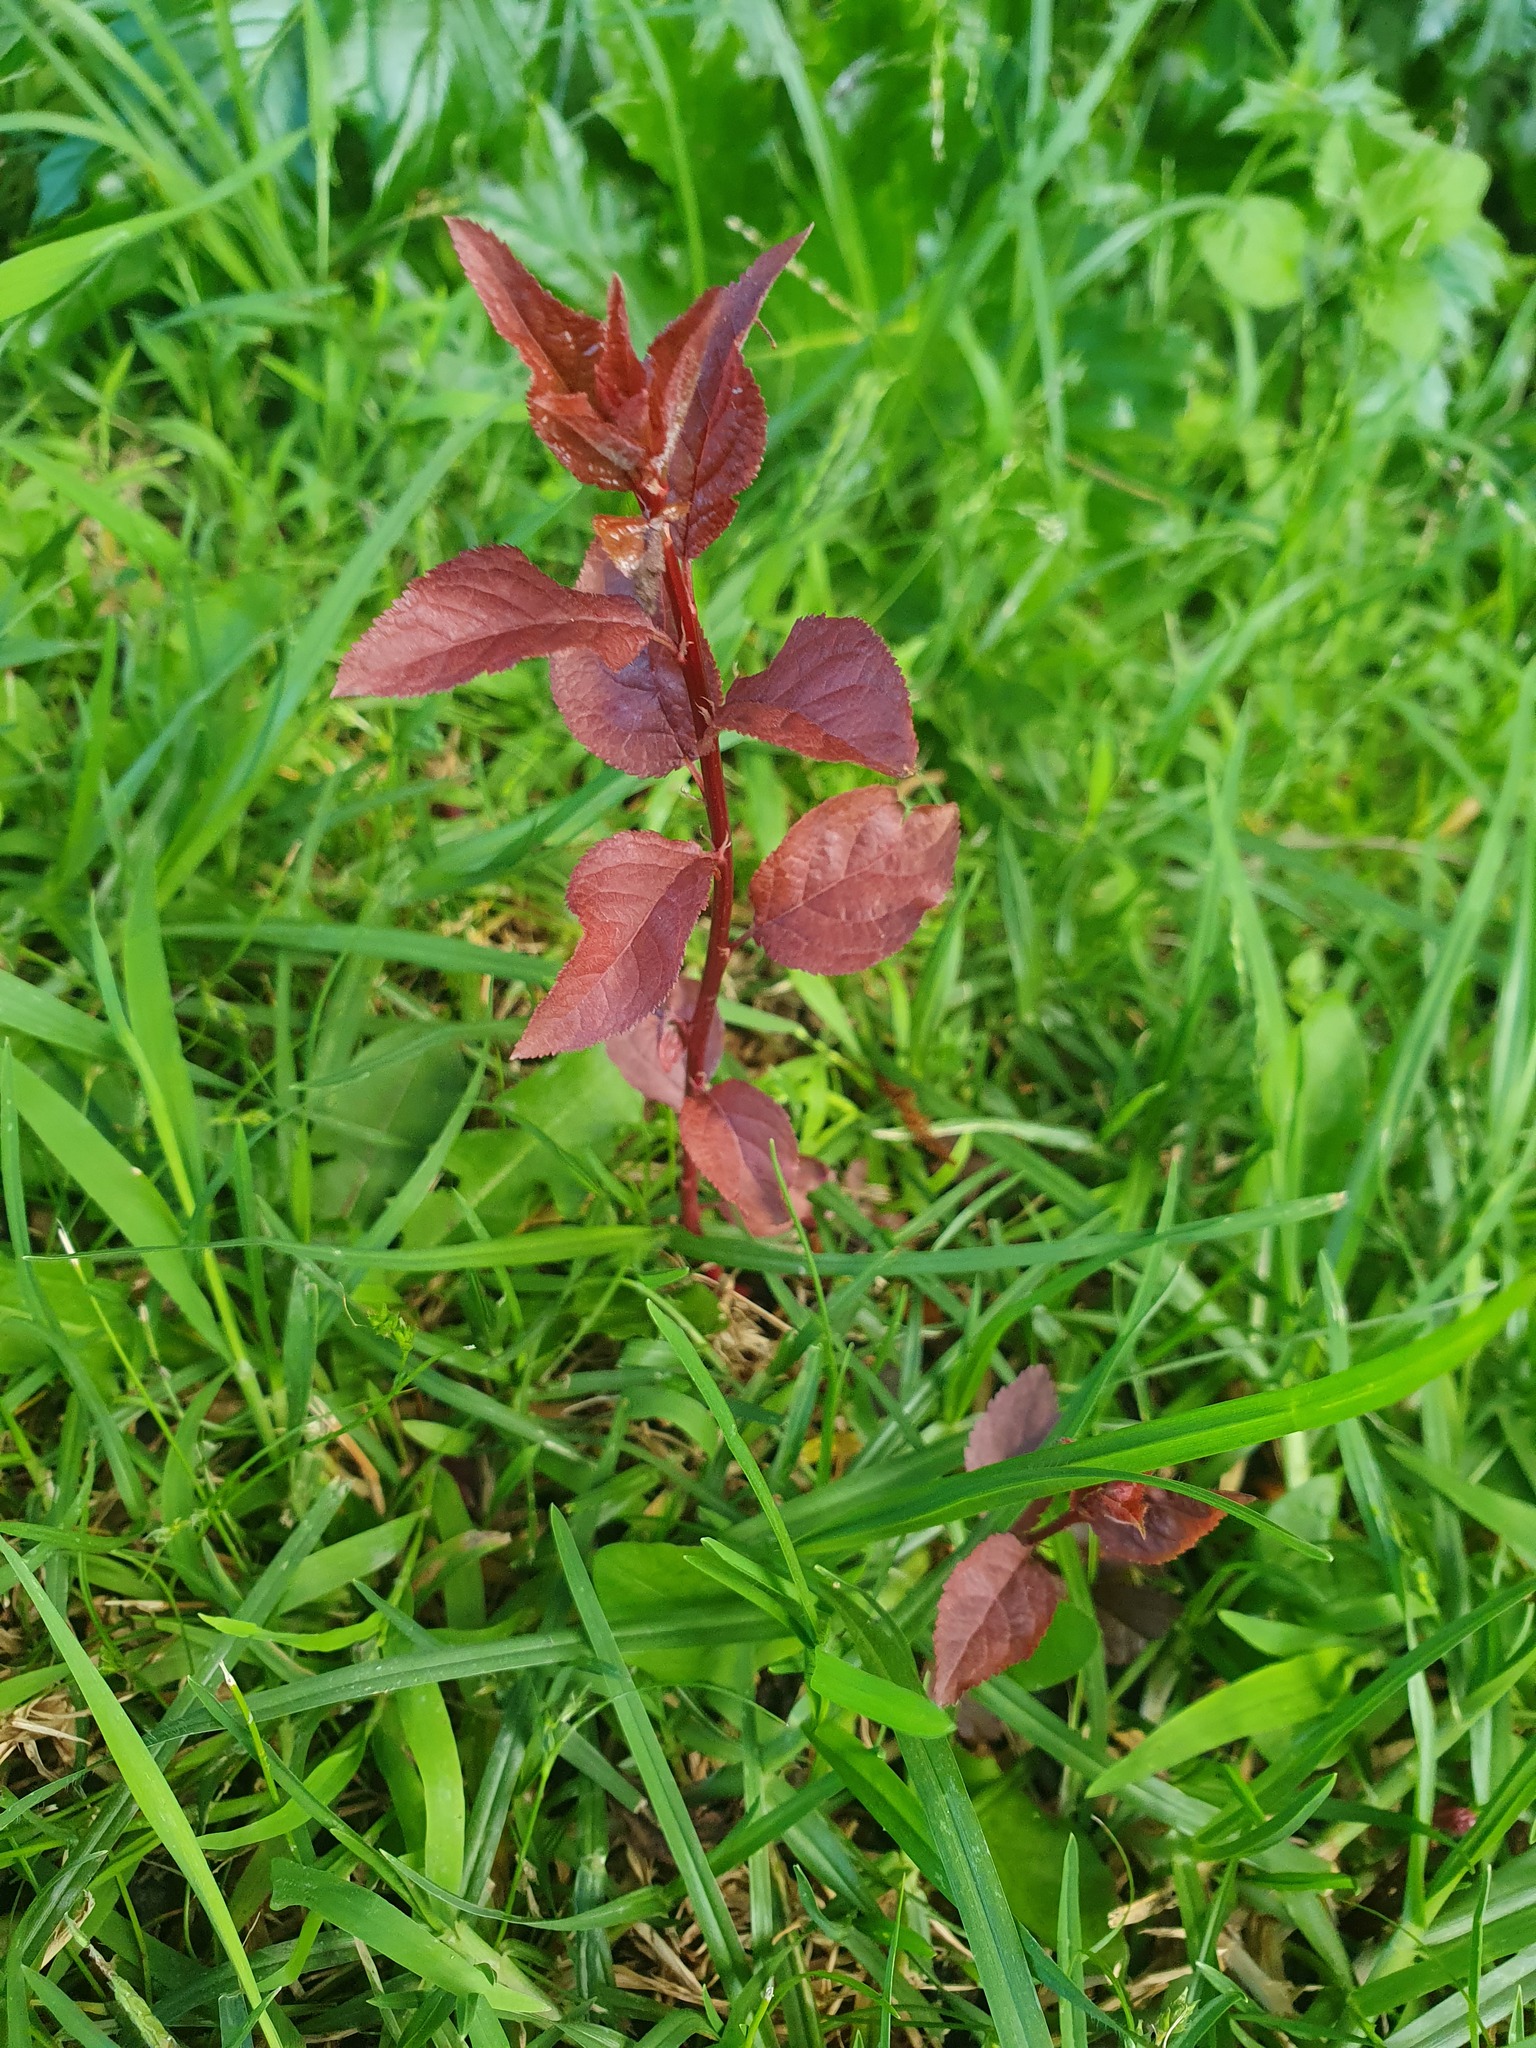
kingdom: Plantae
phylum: Tracheophyta
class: Magnoliopsida
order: Rosales
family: Rosaceae
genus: Prunus
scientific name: Prunus cerasifera
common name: Cherry plum
